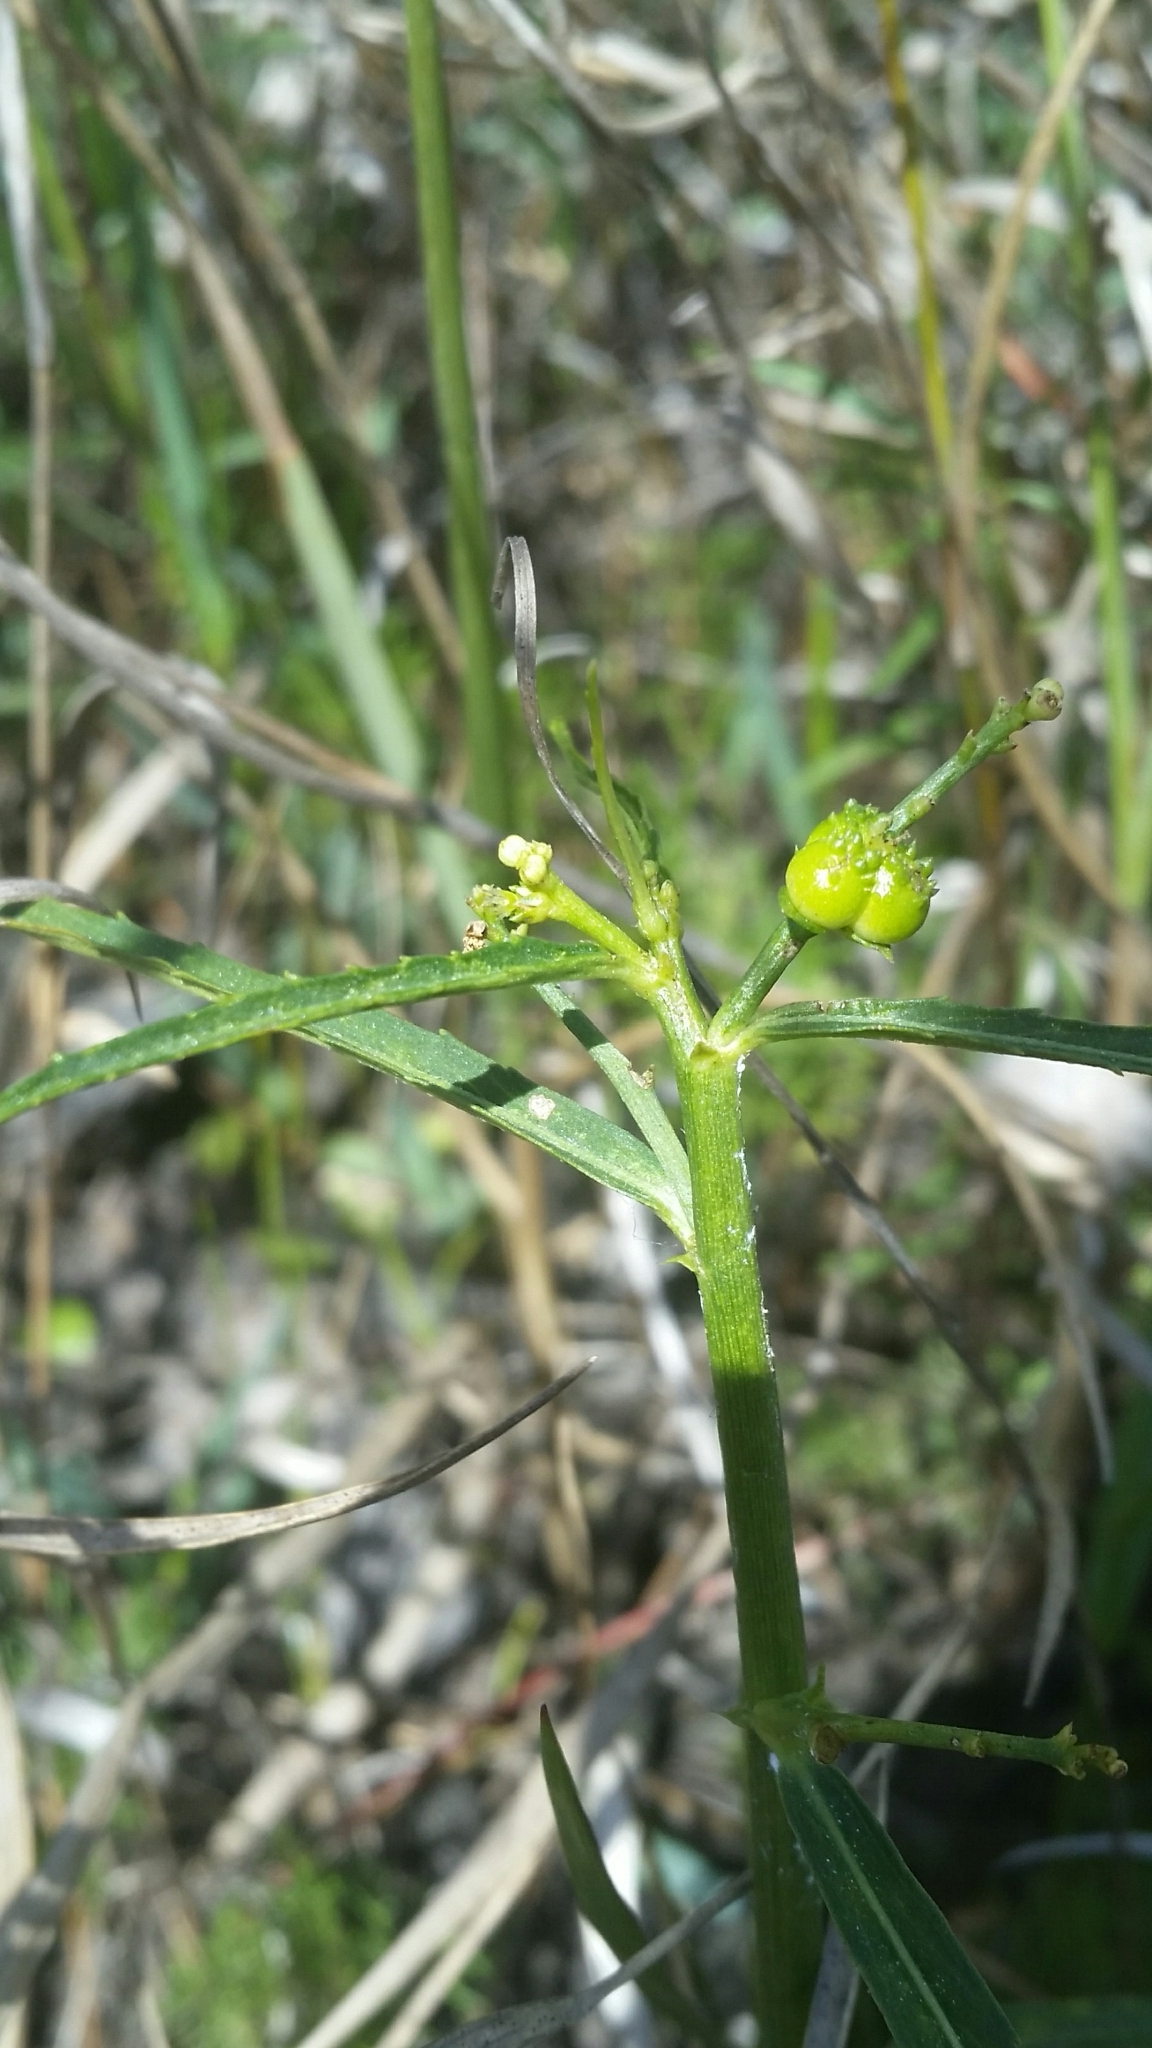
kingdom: Plantae
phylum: Tracheophyta
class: Magnoliopsida
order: Malpighiales
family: Euphorbiaceae
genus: Caperonia
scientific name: Caperonia castaneifolia
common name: Chestnutleaf false croton
